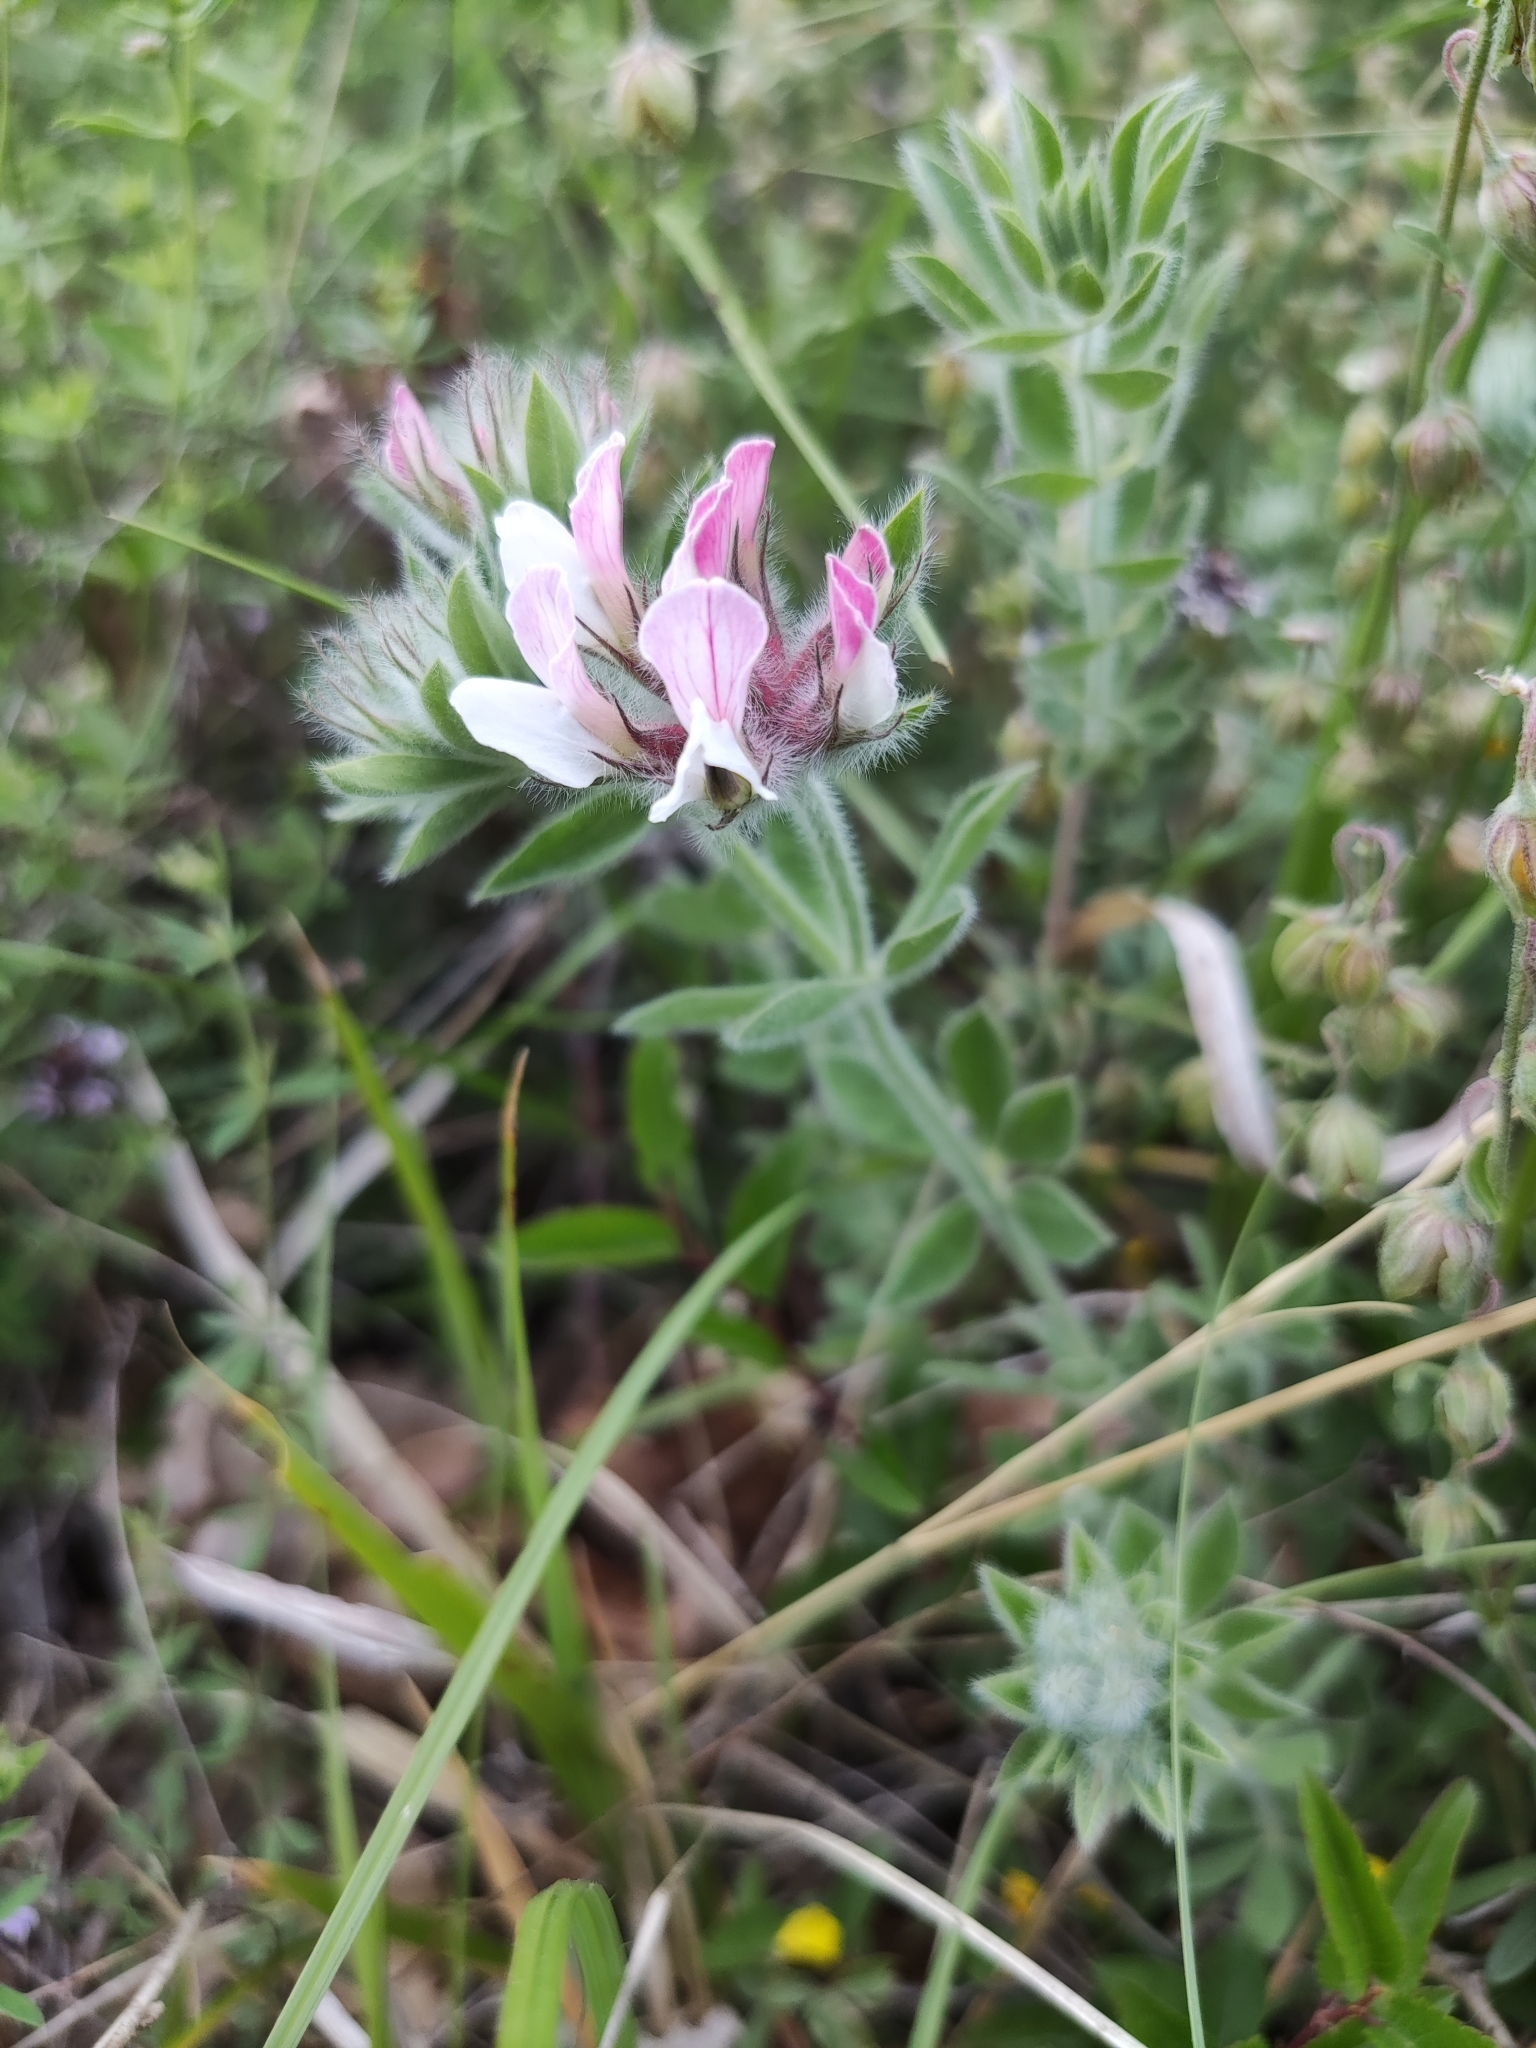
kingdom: Plantae
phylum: Tracheophyta
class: Magnoliopsida
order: Fabales
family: Fabaceae
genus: Lotus
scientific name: Lotus hirsutus
